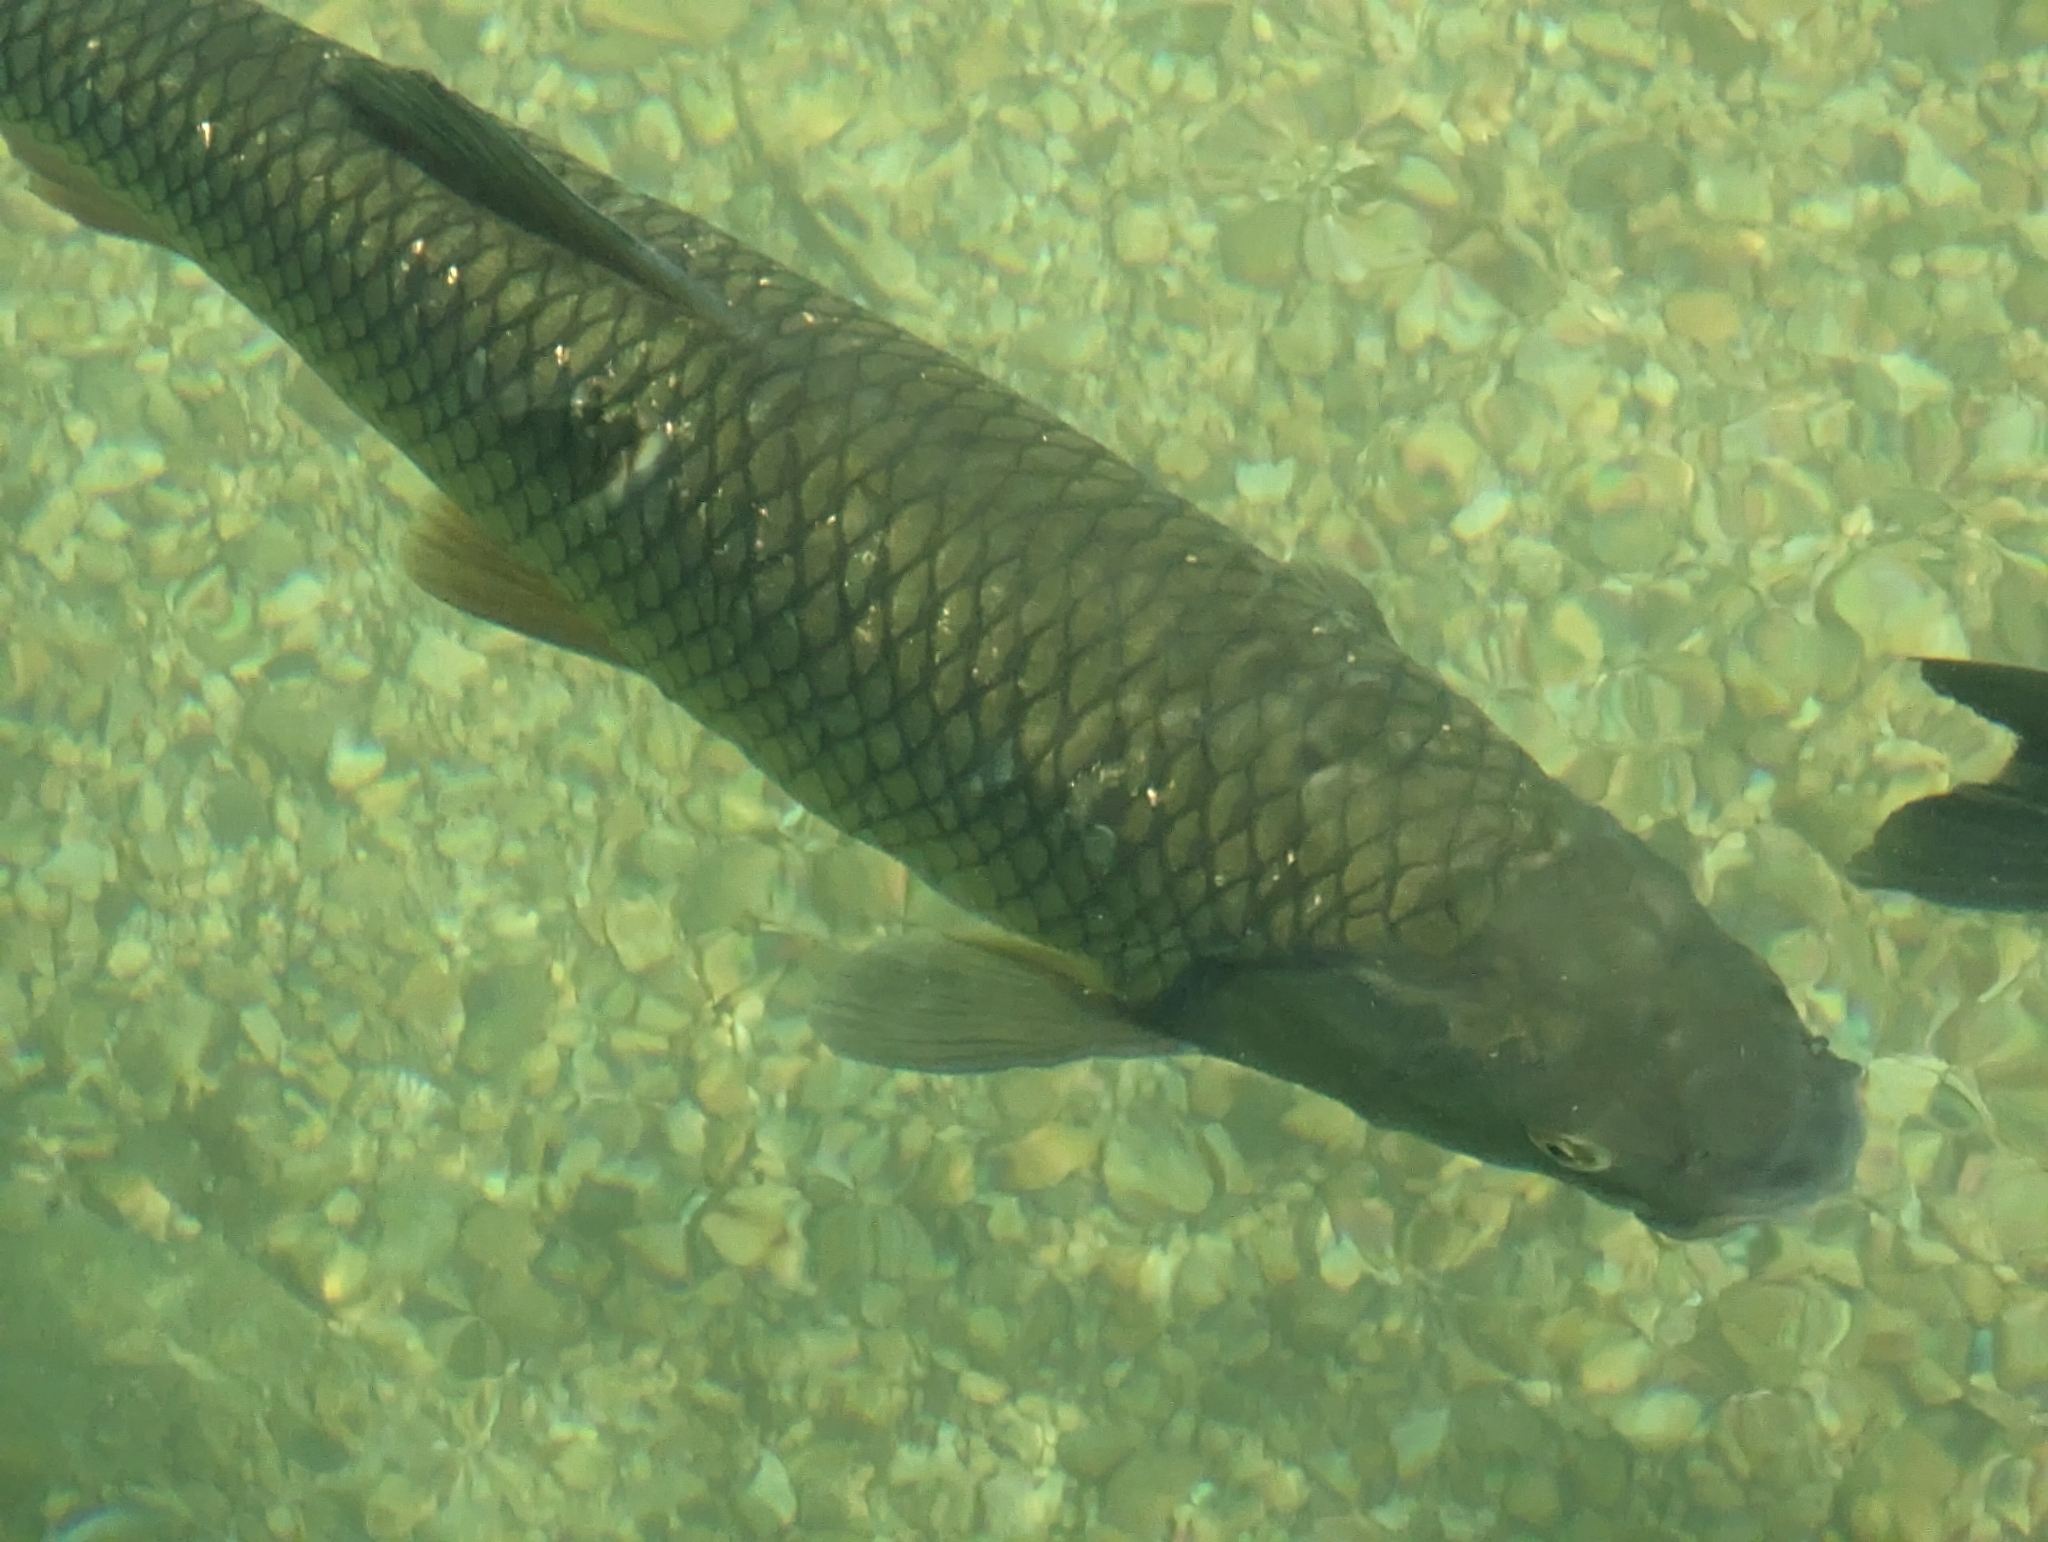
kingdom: Animalia
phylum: Chordata
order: Cypriniformes
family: Cyprinidae
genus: Squalius
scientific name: Squalius cephalus
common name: Chub
